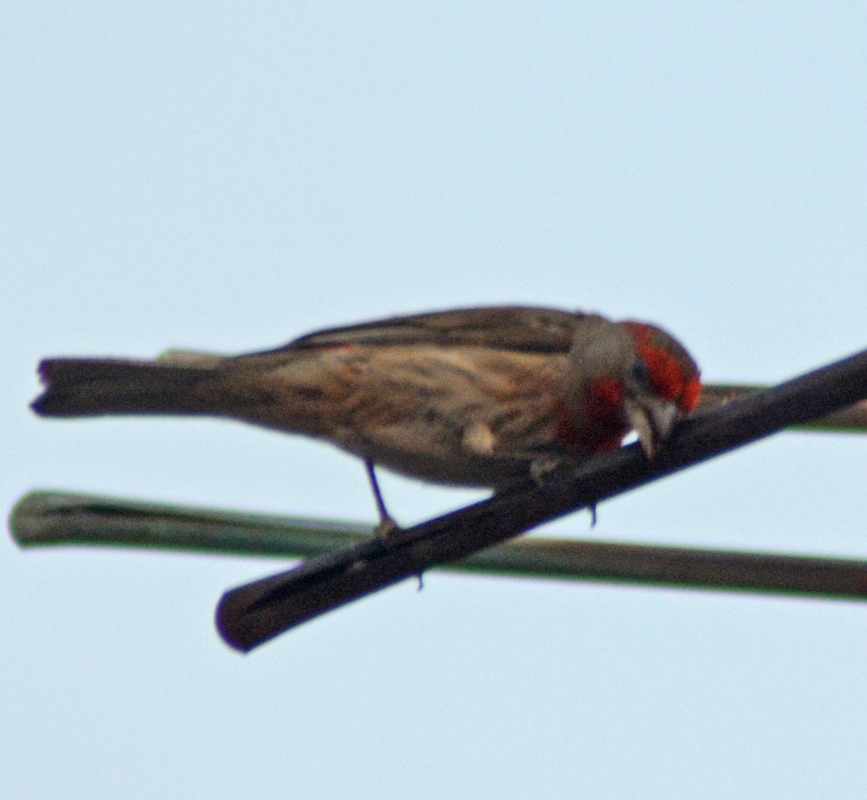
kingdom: Animalia
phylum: Chordata
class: Aves
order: Passeriformes
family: Fringillidae
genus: Haemorhous
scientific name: Haemorhous mexicanus
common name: House finch
